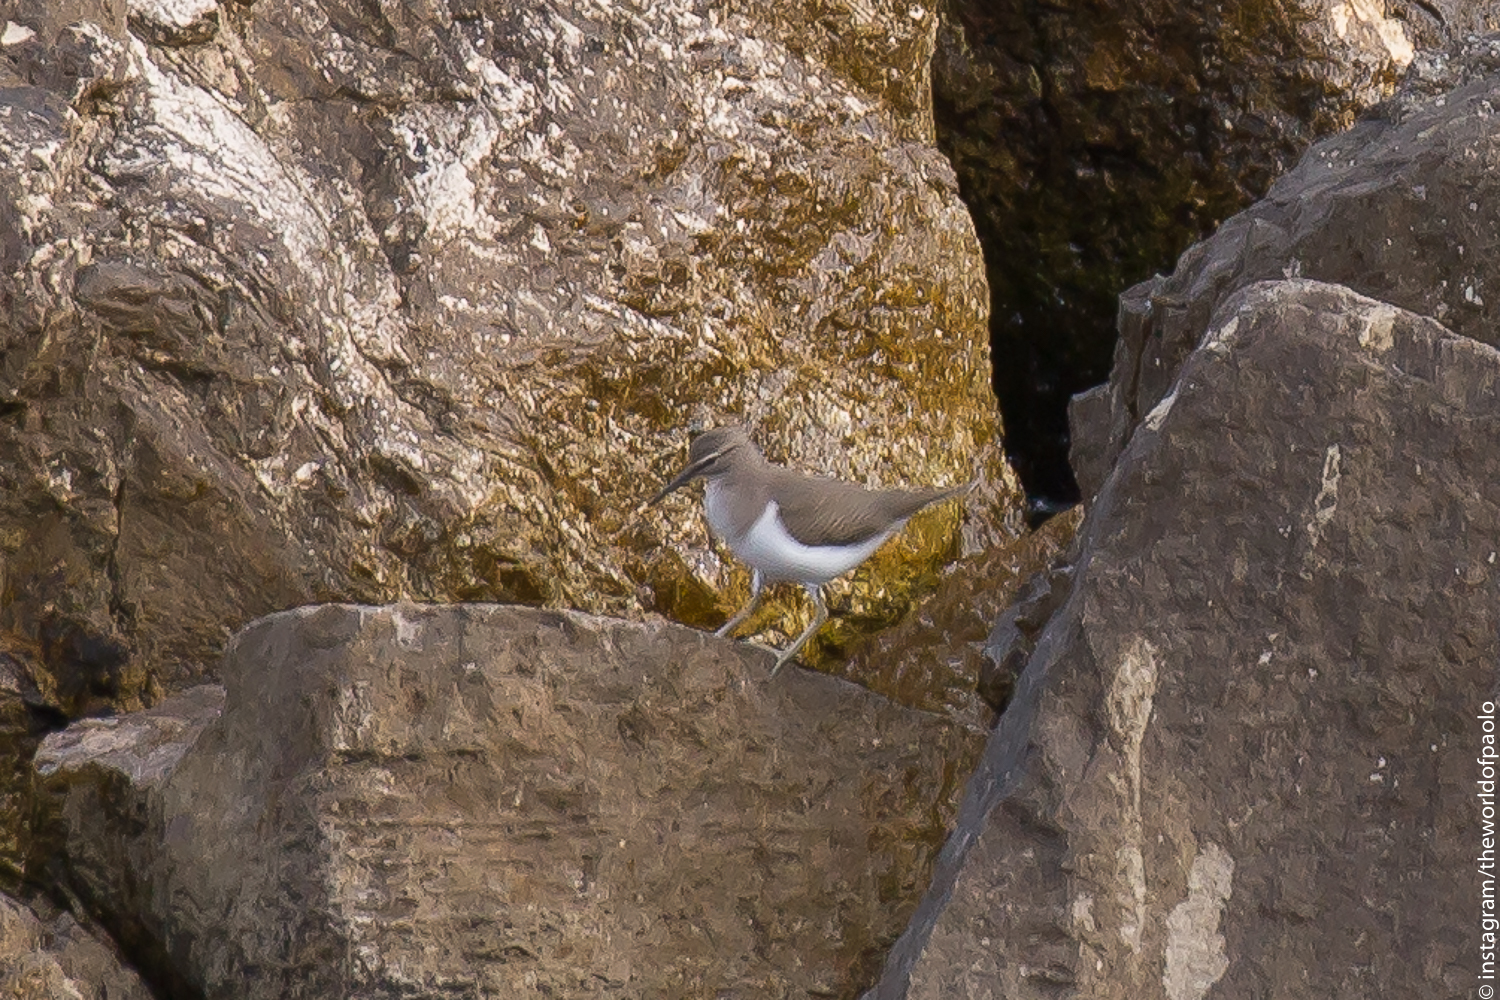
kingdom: Animalia
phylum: Chordata
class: Aves
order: Charadriiformes
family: Scolopacidae
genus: Actitis
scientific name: Actitis hypoleucos
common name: Common sandpiper
